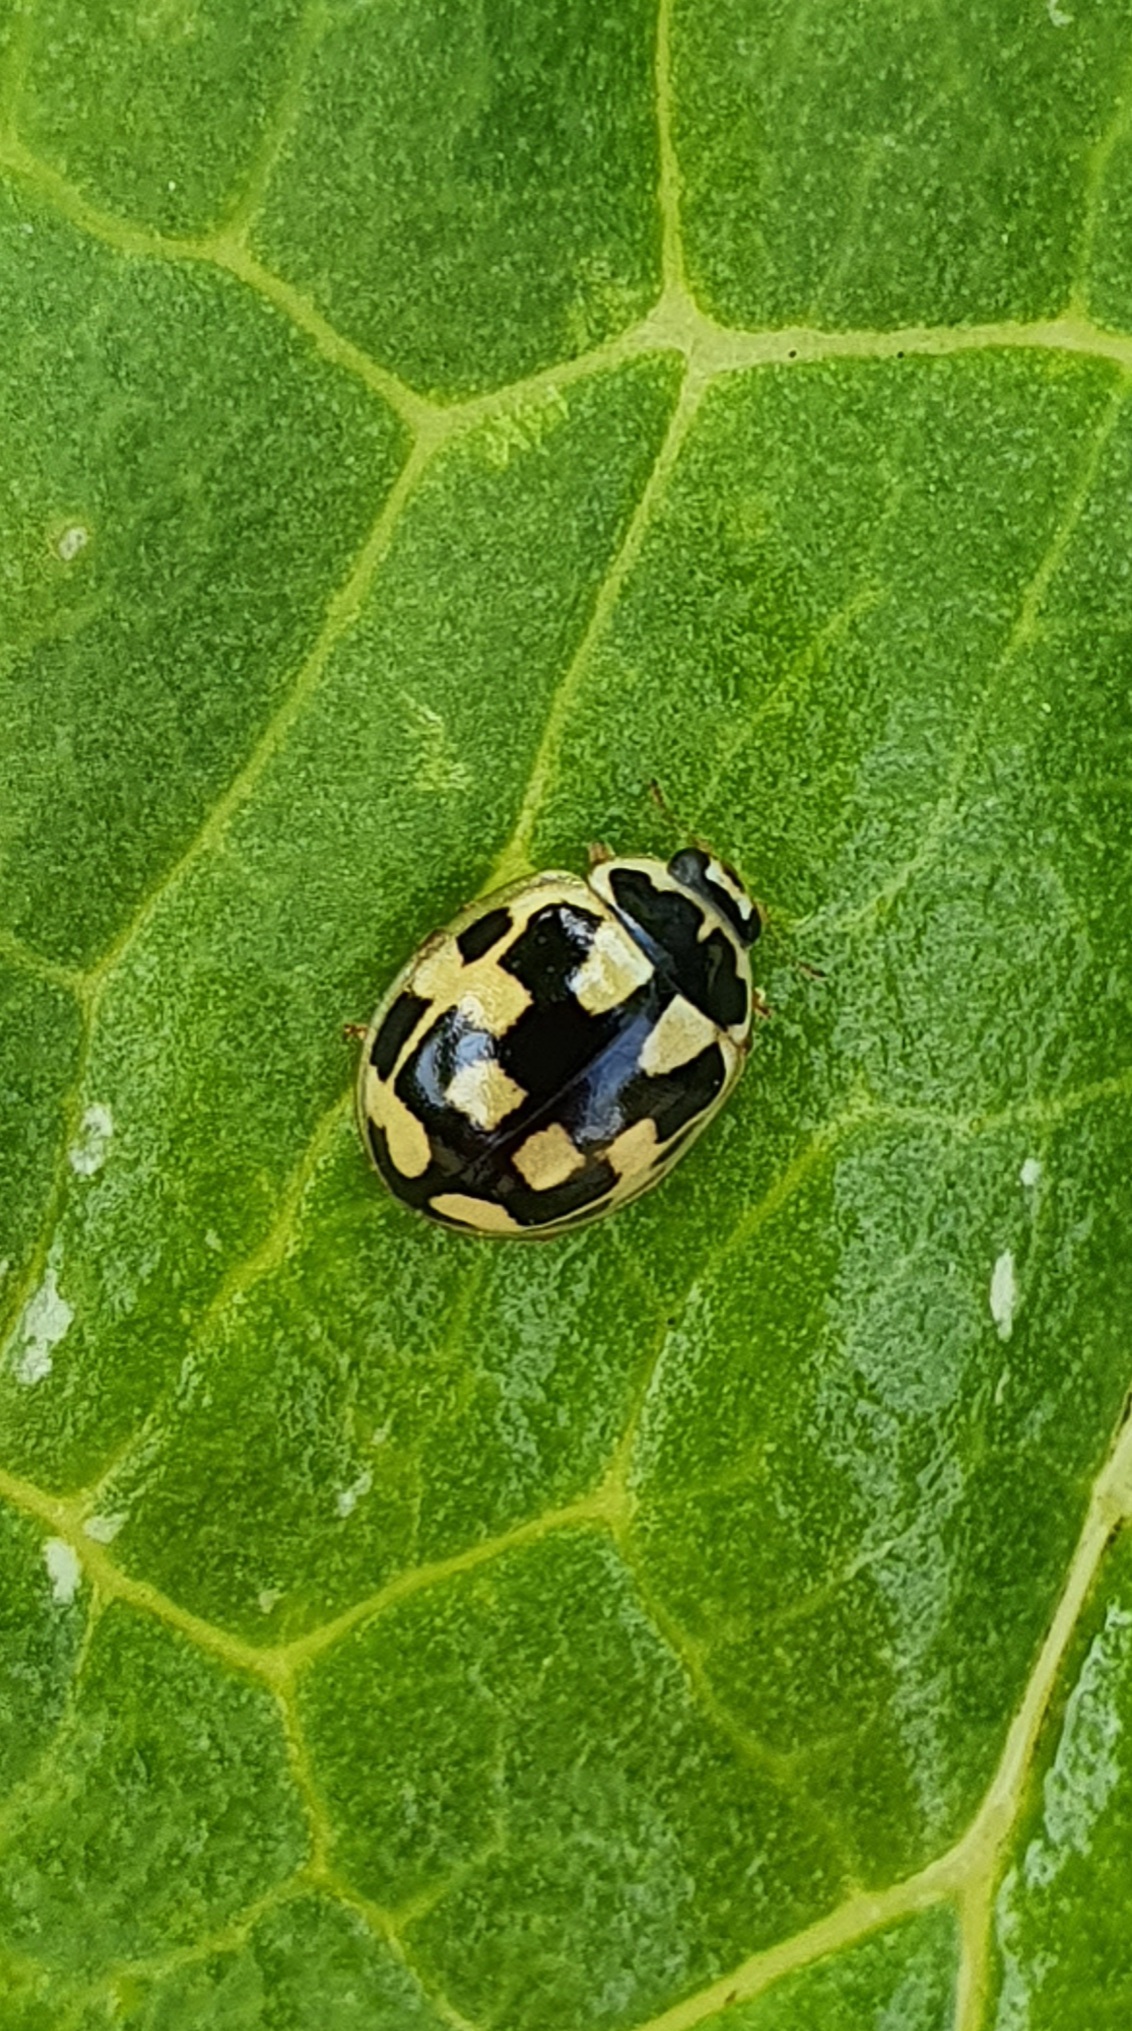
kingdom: Animalia
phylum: Arthropoda
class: Insecta
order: Coleoptera
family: Coccinellidae
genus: Propylaea
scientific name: Propylaea quatuordecimpunctata
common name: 14-spotted ladybird beetle
